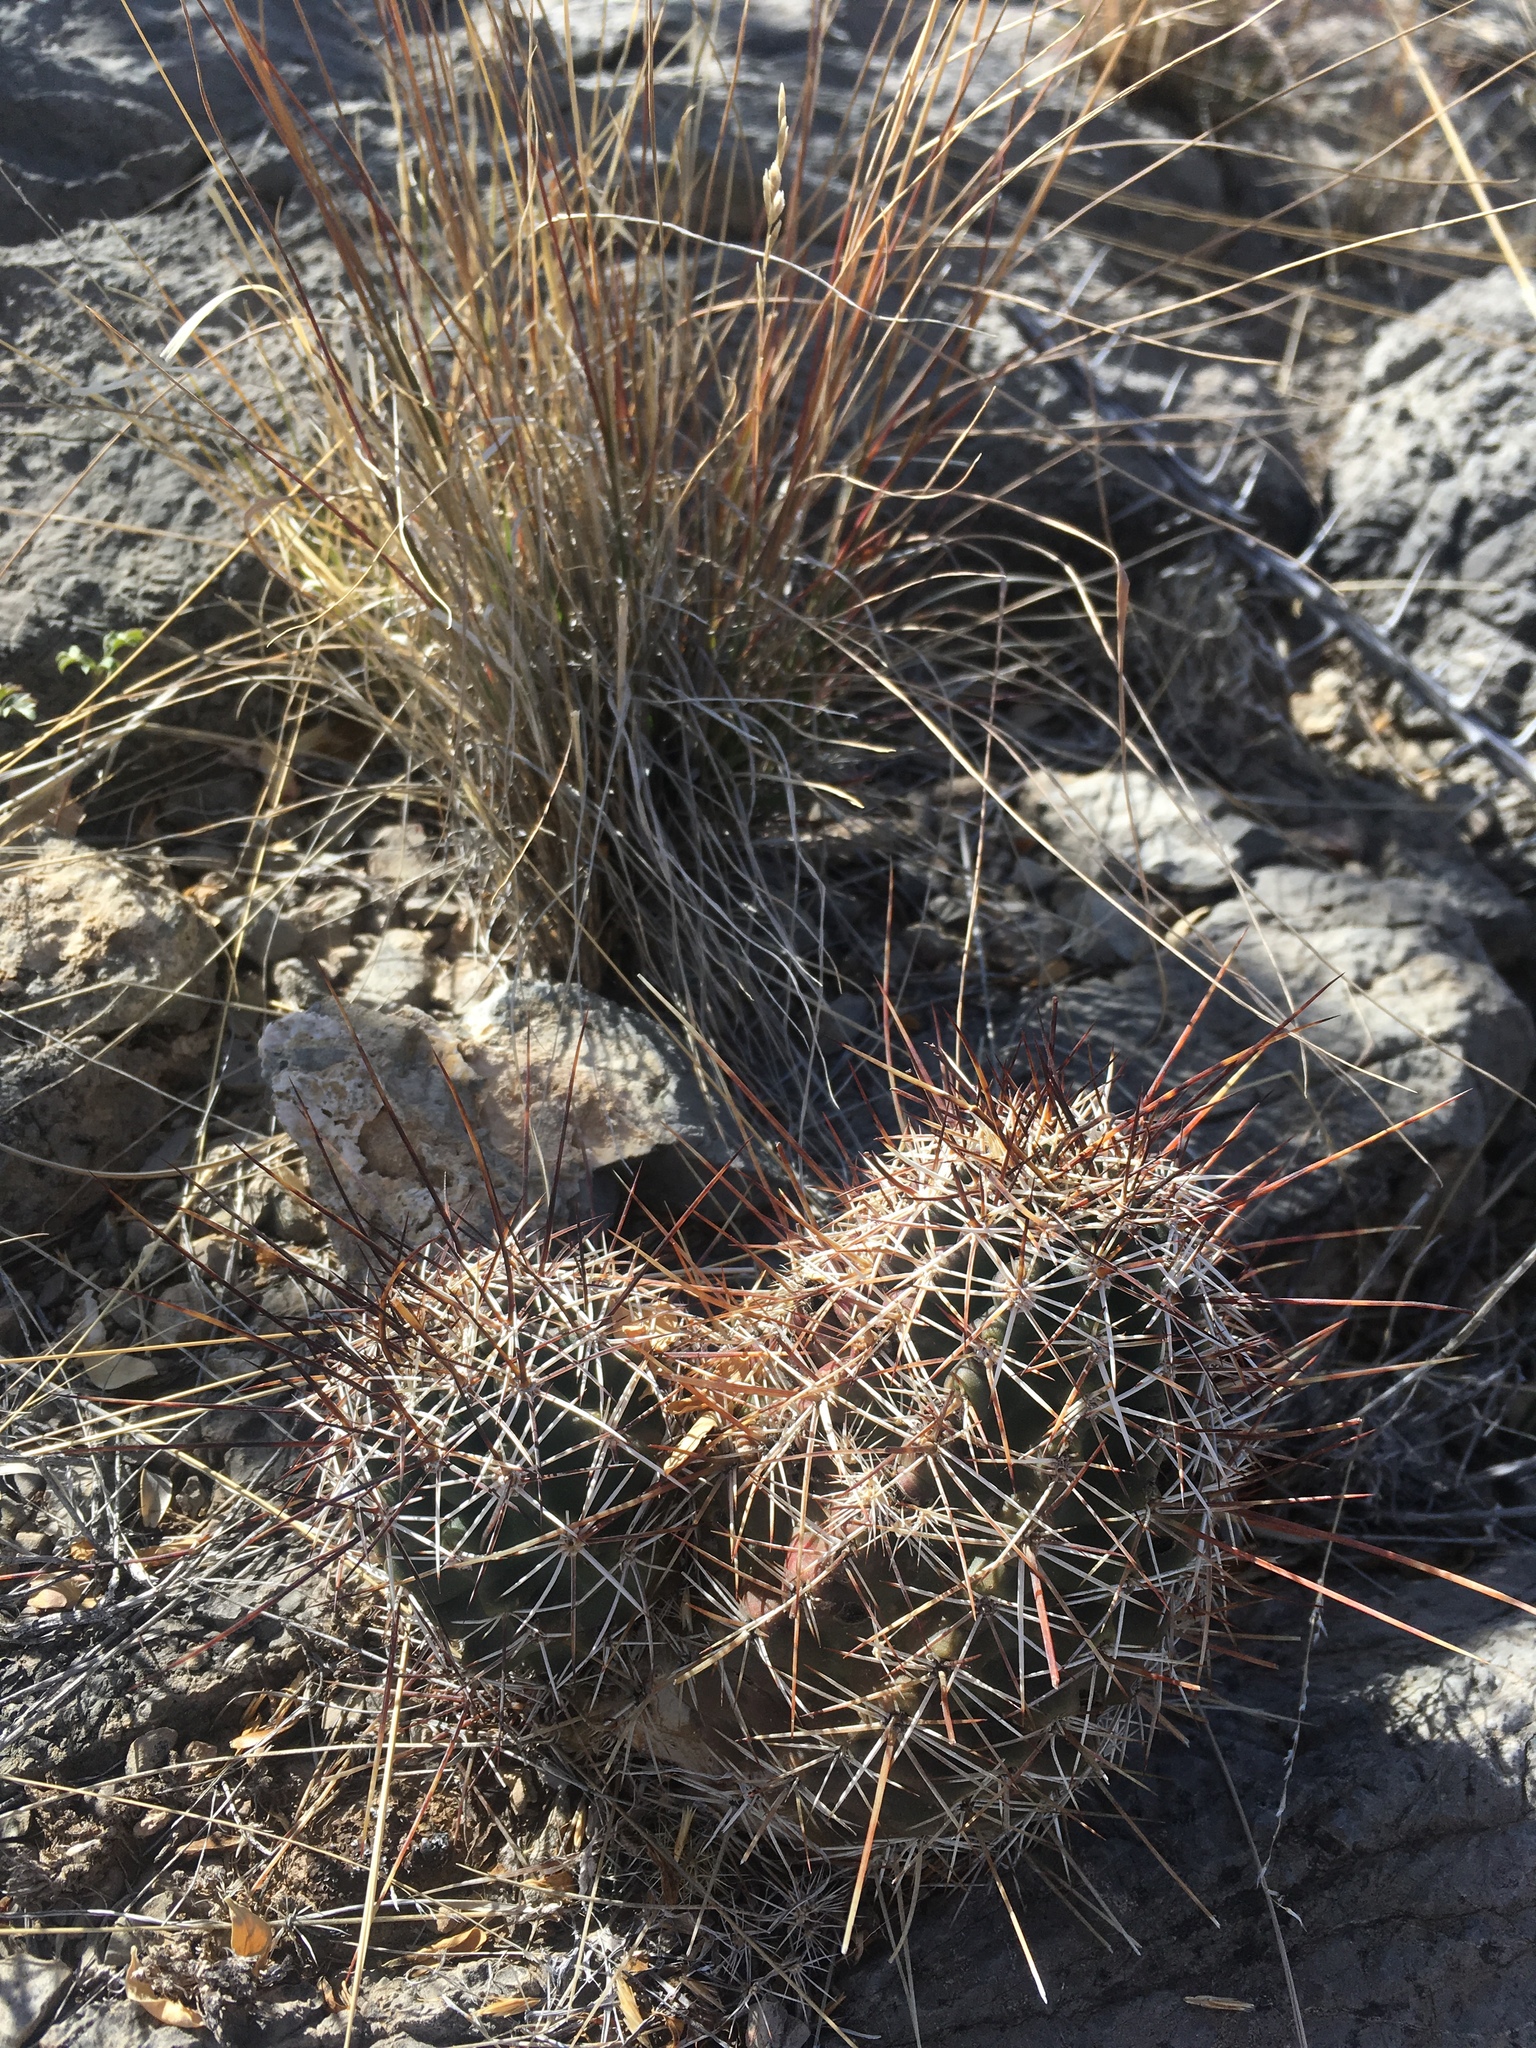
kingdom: Plantae
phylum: Tracheophyta
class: Magnoliopsida
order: Caryophyllales
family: Cactaceae
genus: Echinocereus
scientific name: Echinocereus fendleri
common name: Fendler's hedgehog cactus
